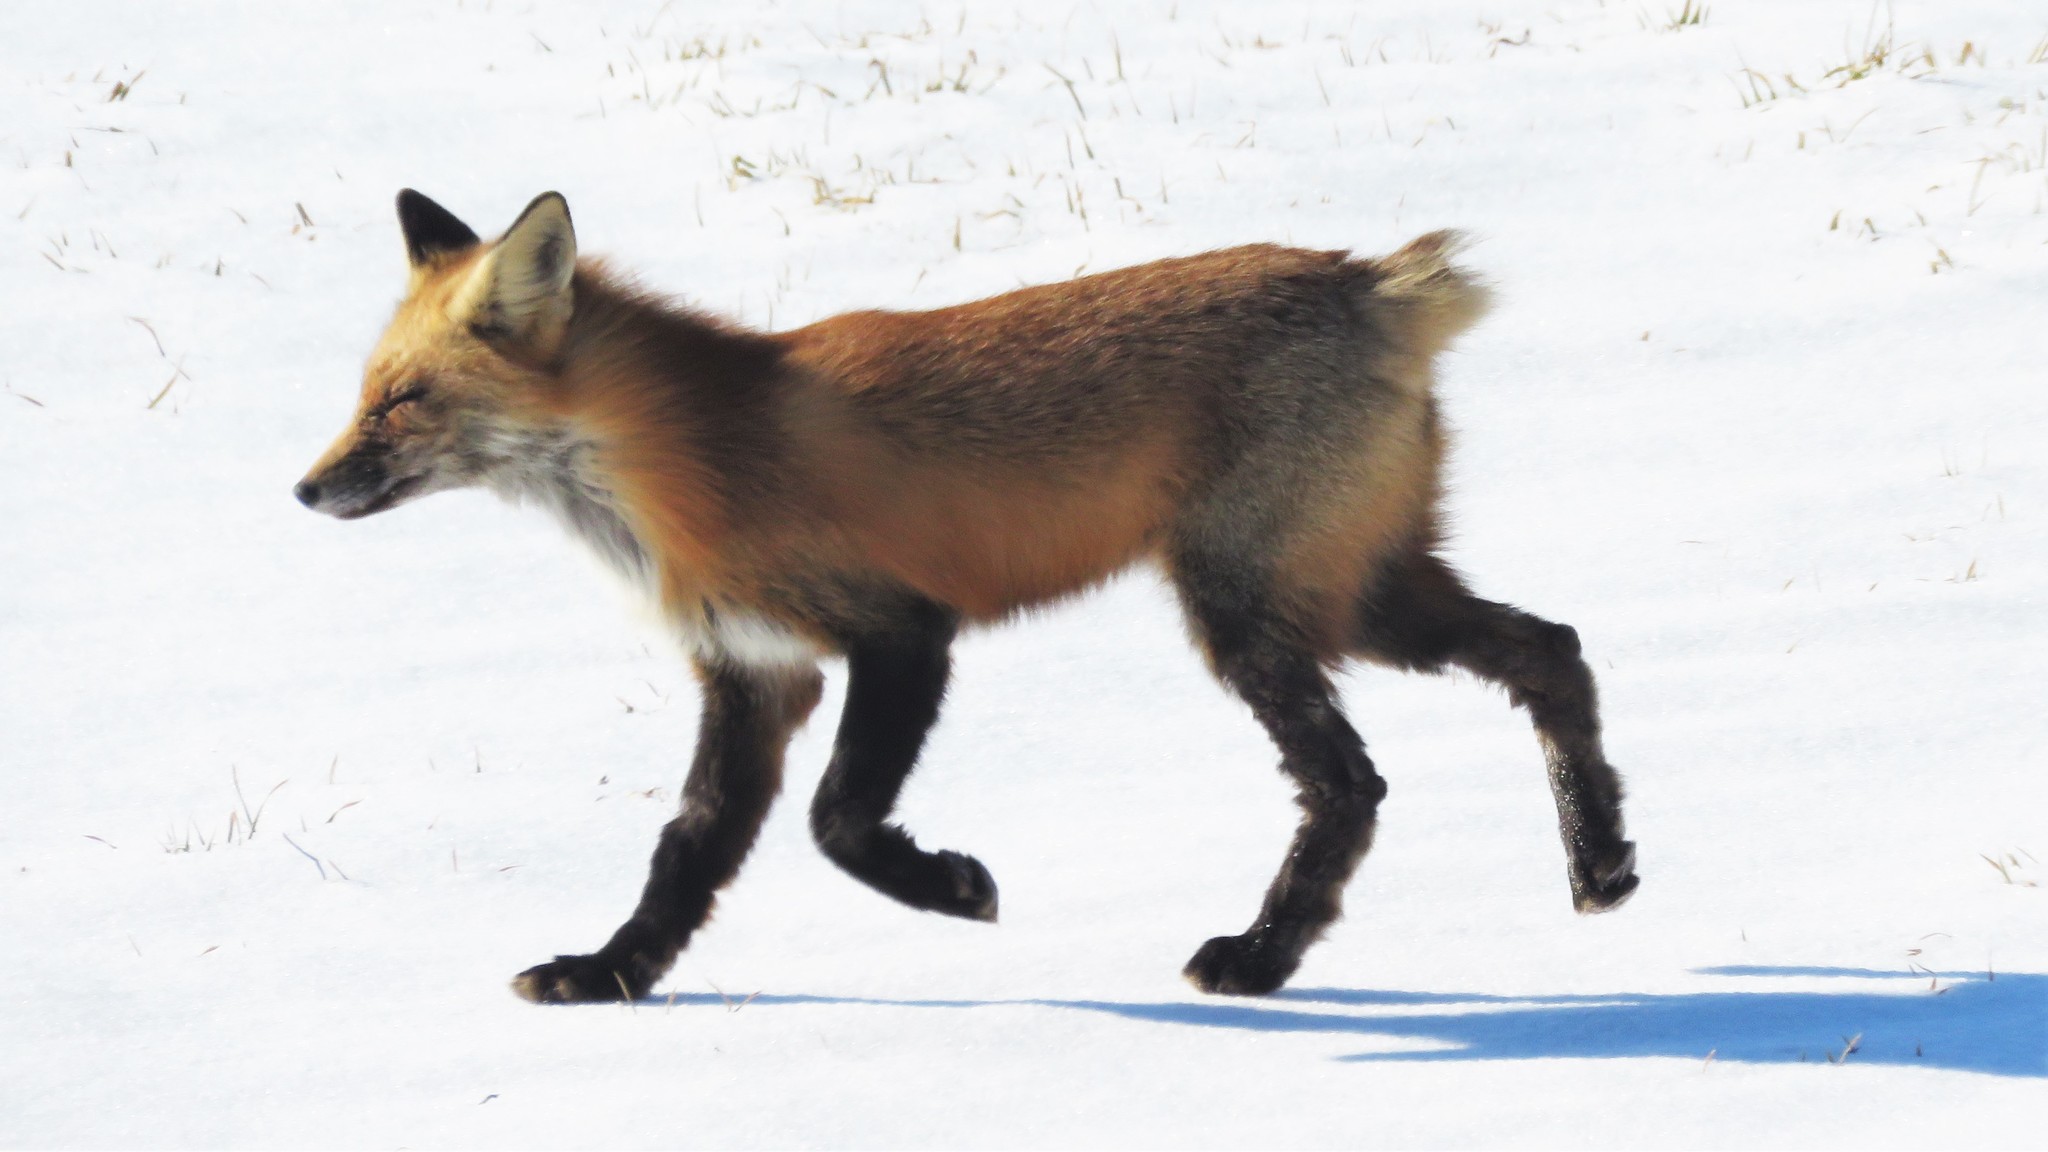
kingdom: Animalia
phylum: Chordata
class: Mammalia
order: Carnivora
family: Canidae
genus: Vulpes
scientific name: Vulpes vulpes
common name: Red fox
